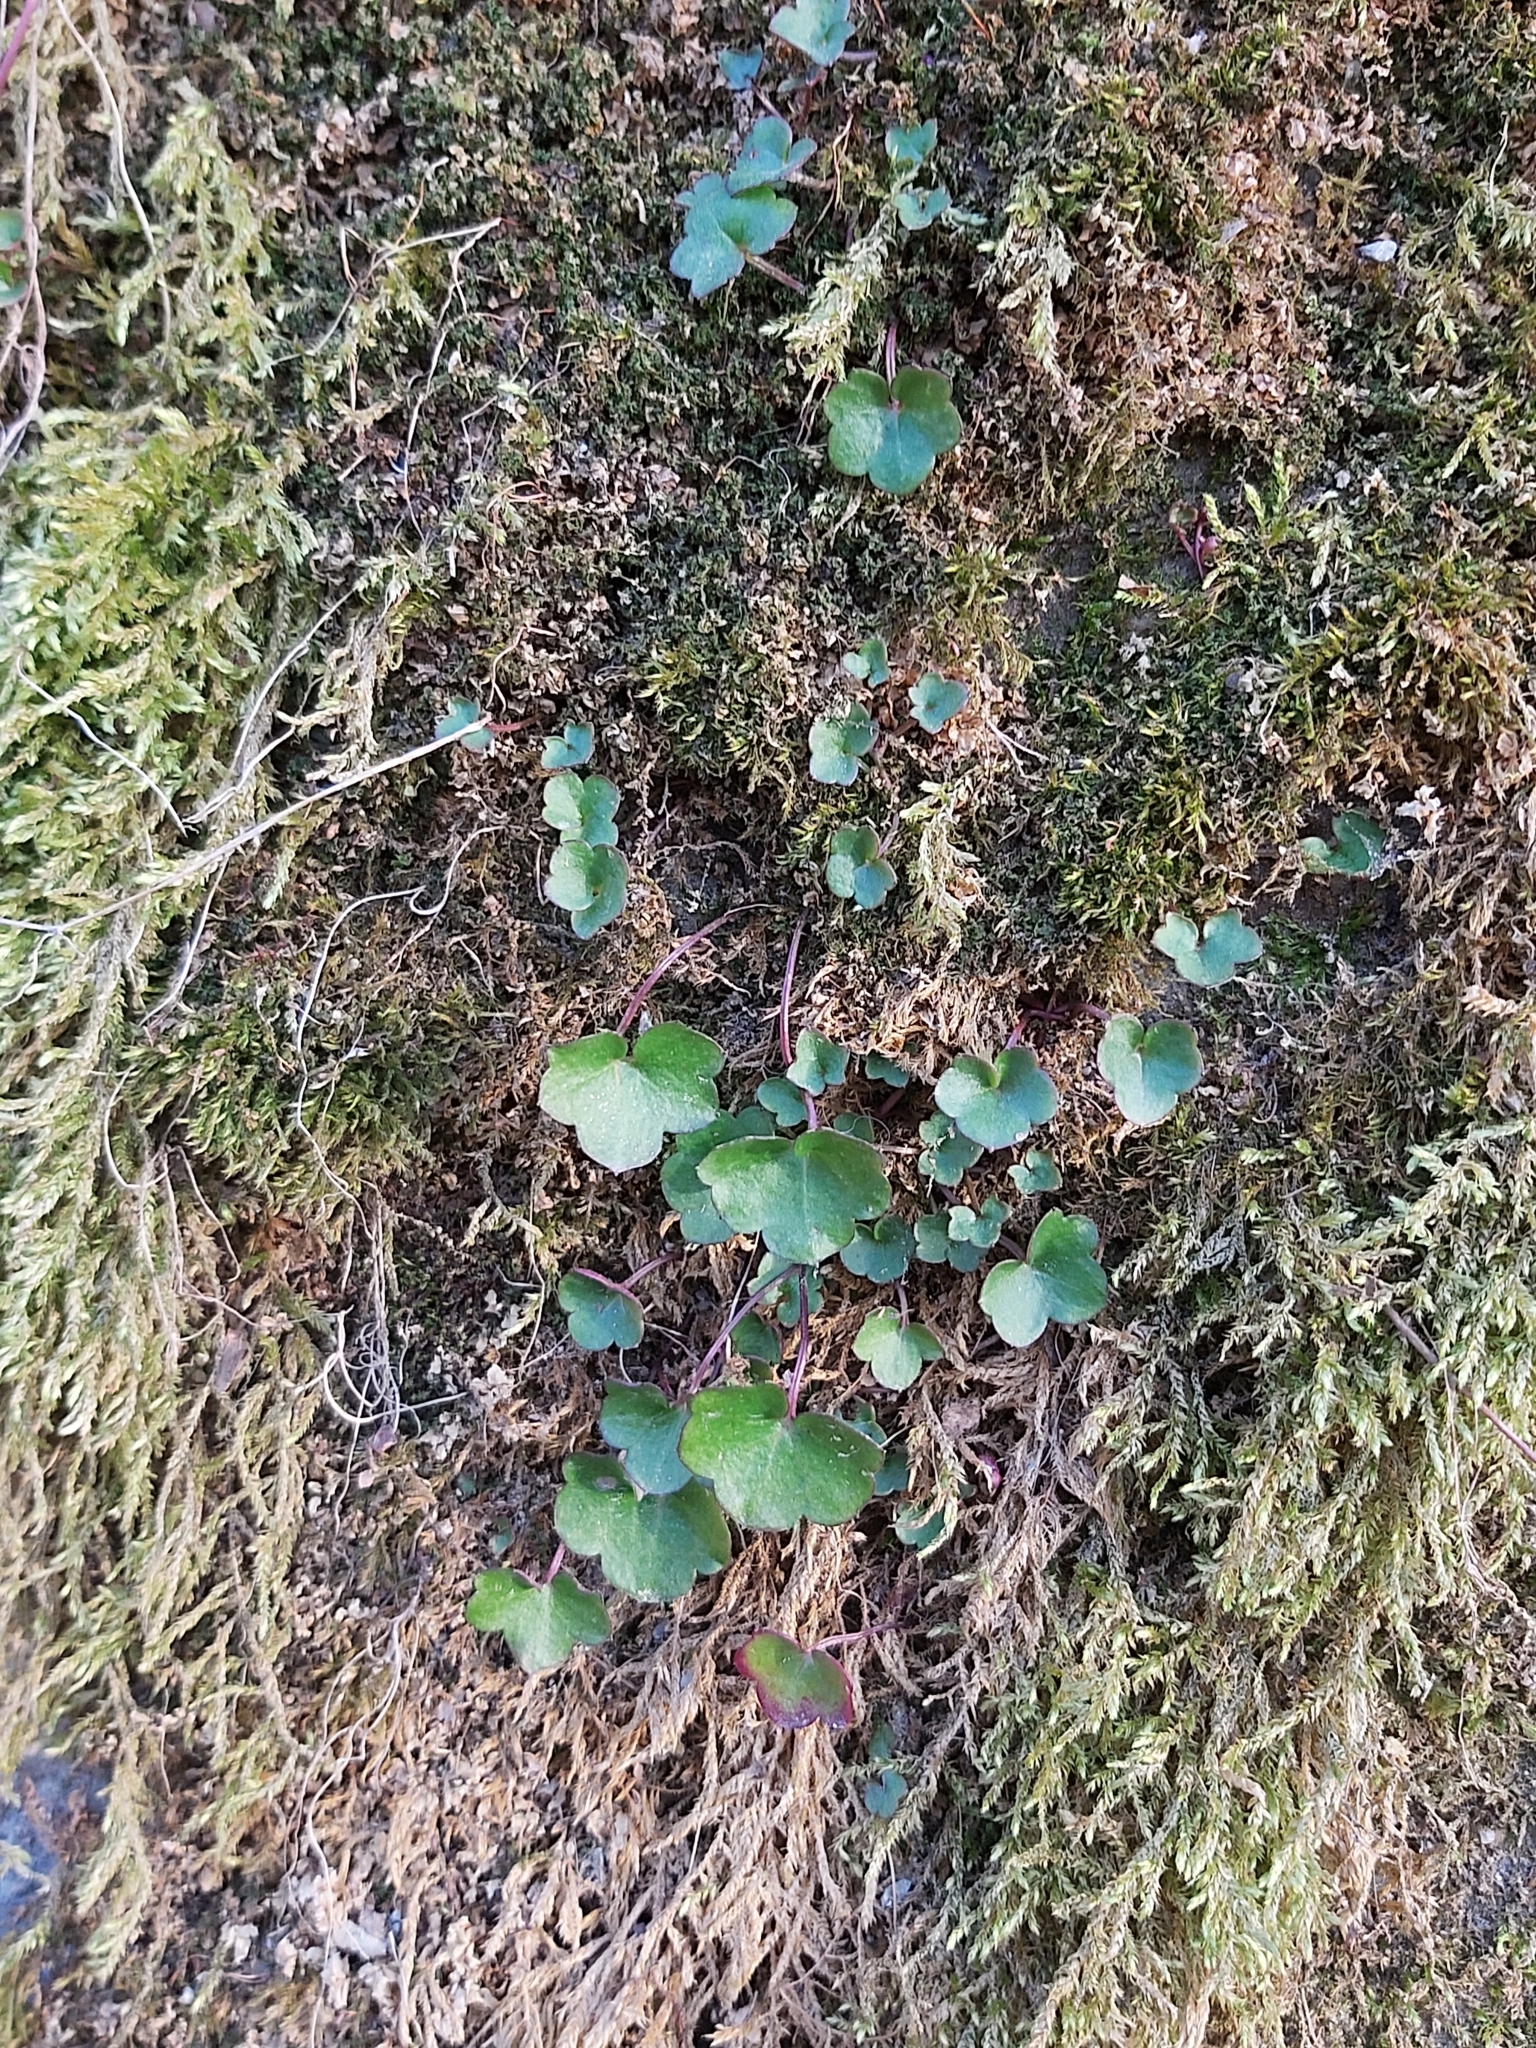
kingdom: Plantae
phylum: Tracheophyta
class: Magnoliopsida
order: Lamiales
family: Plantaginaceae
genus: Cymbalaria
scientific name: Cymbalaria muralis
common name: Ivy-leaved toadflax
